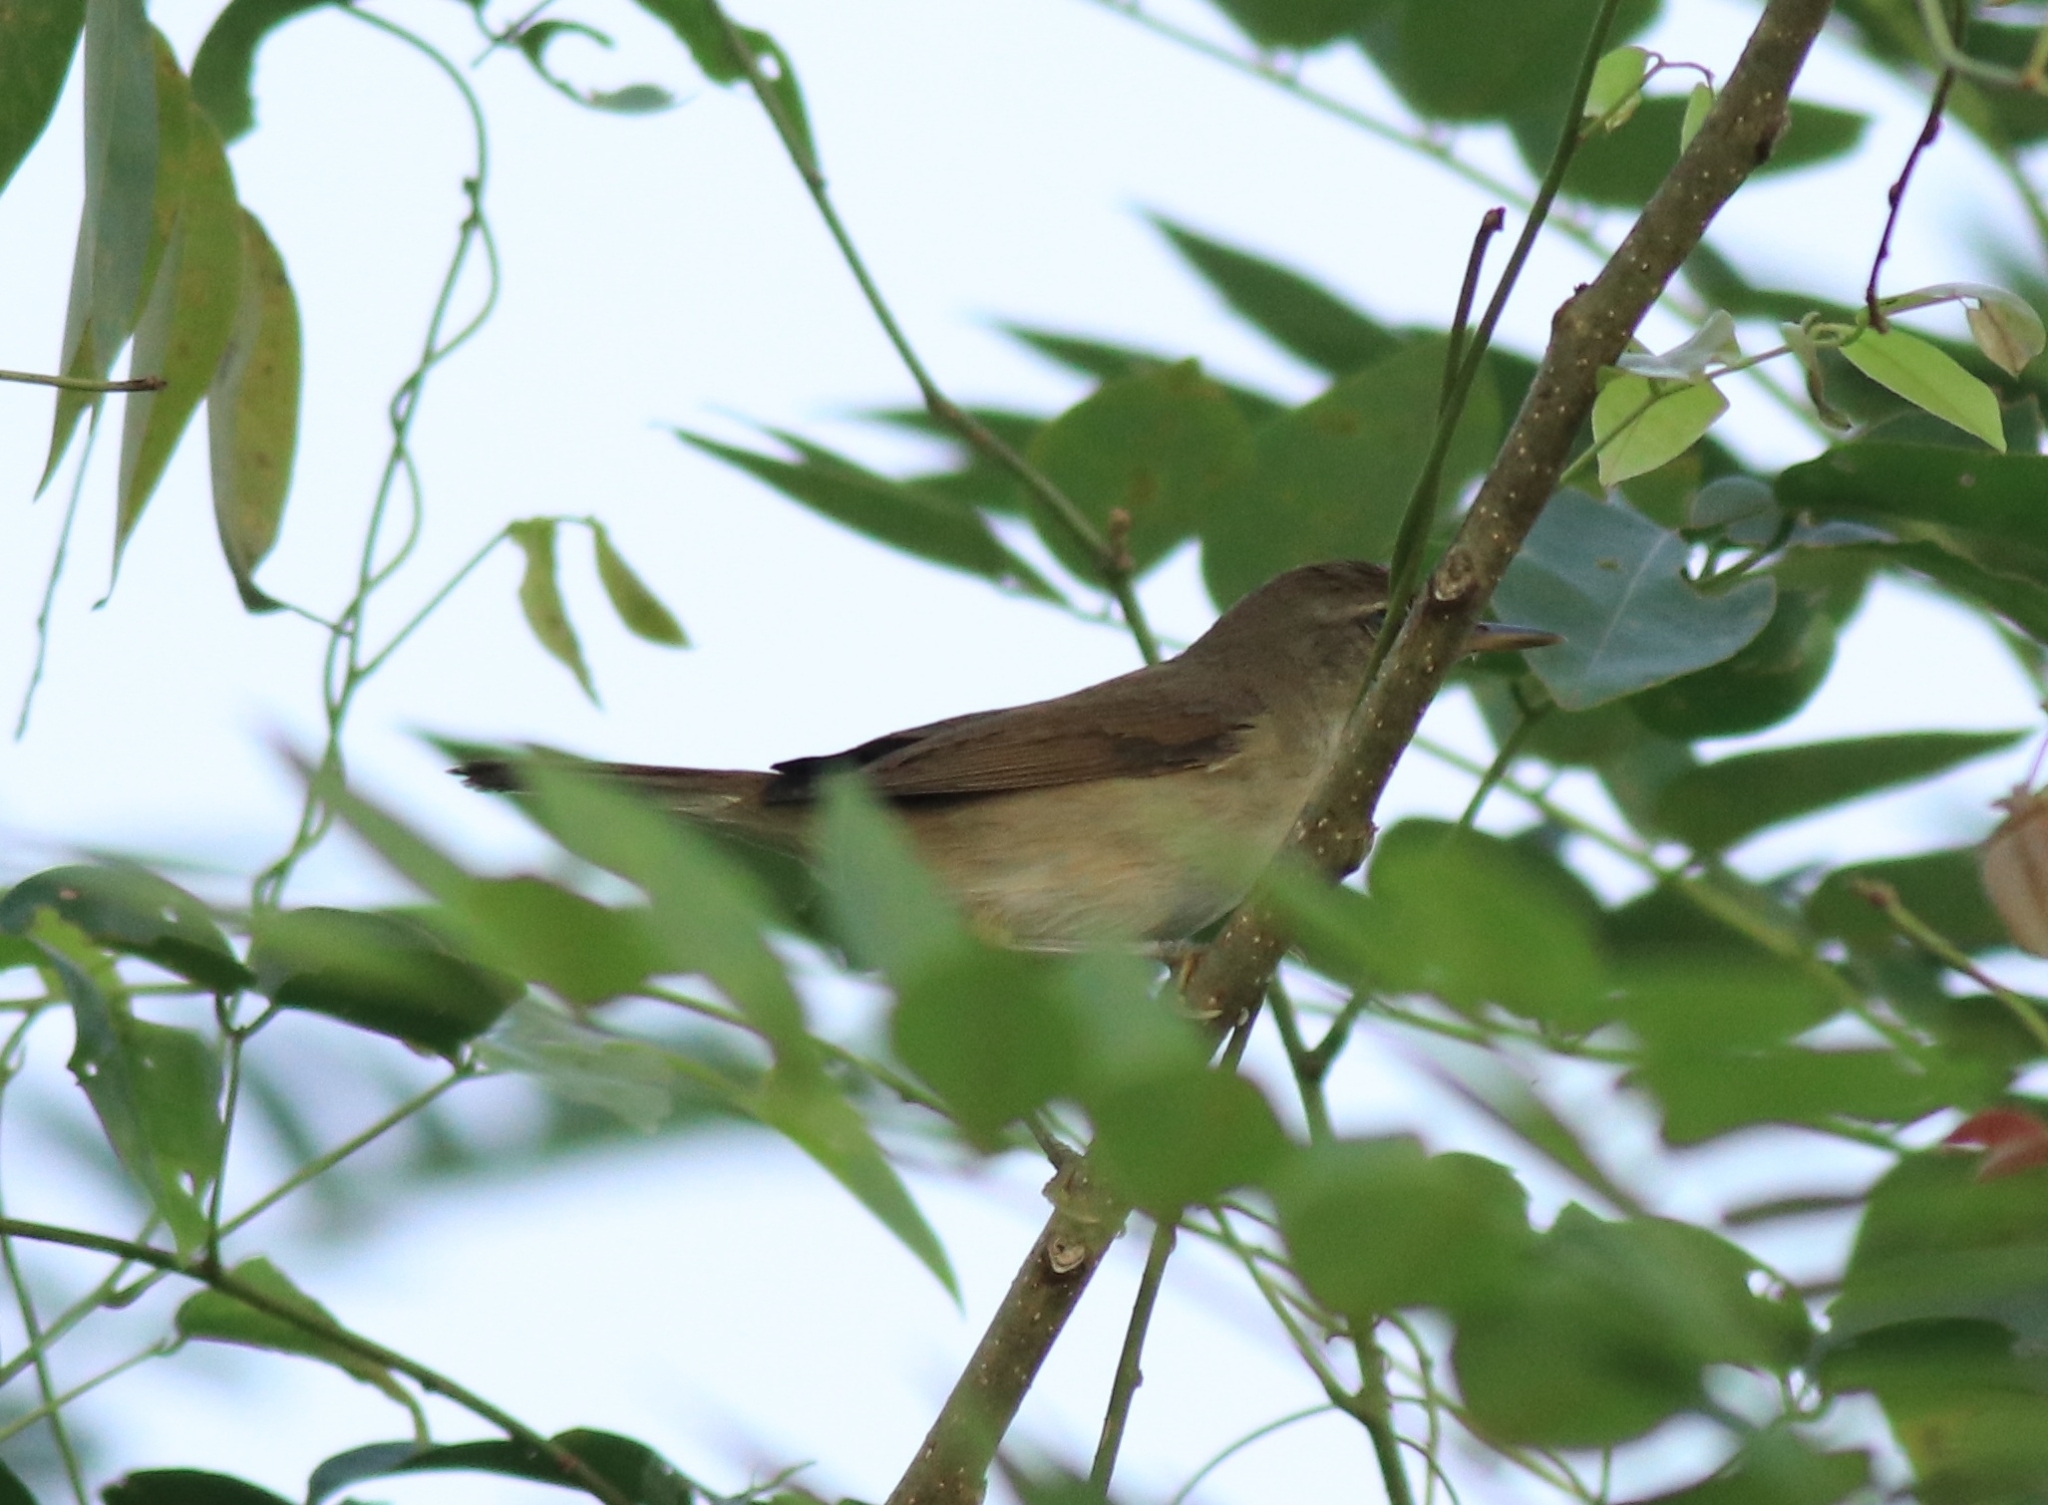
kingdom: Animalia
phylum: Chordata
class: Aves
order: Passeriformes
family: Acrocephalidae
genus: Acrocephalus
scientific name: Acrocephalus dumetorum
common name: Blyth's reed warbler
